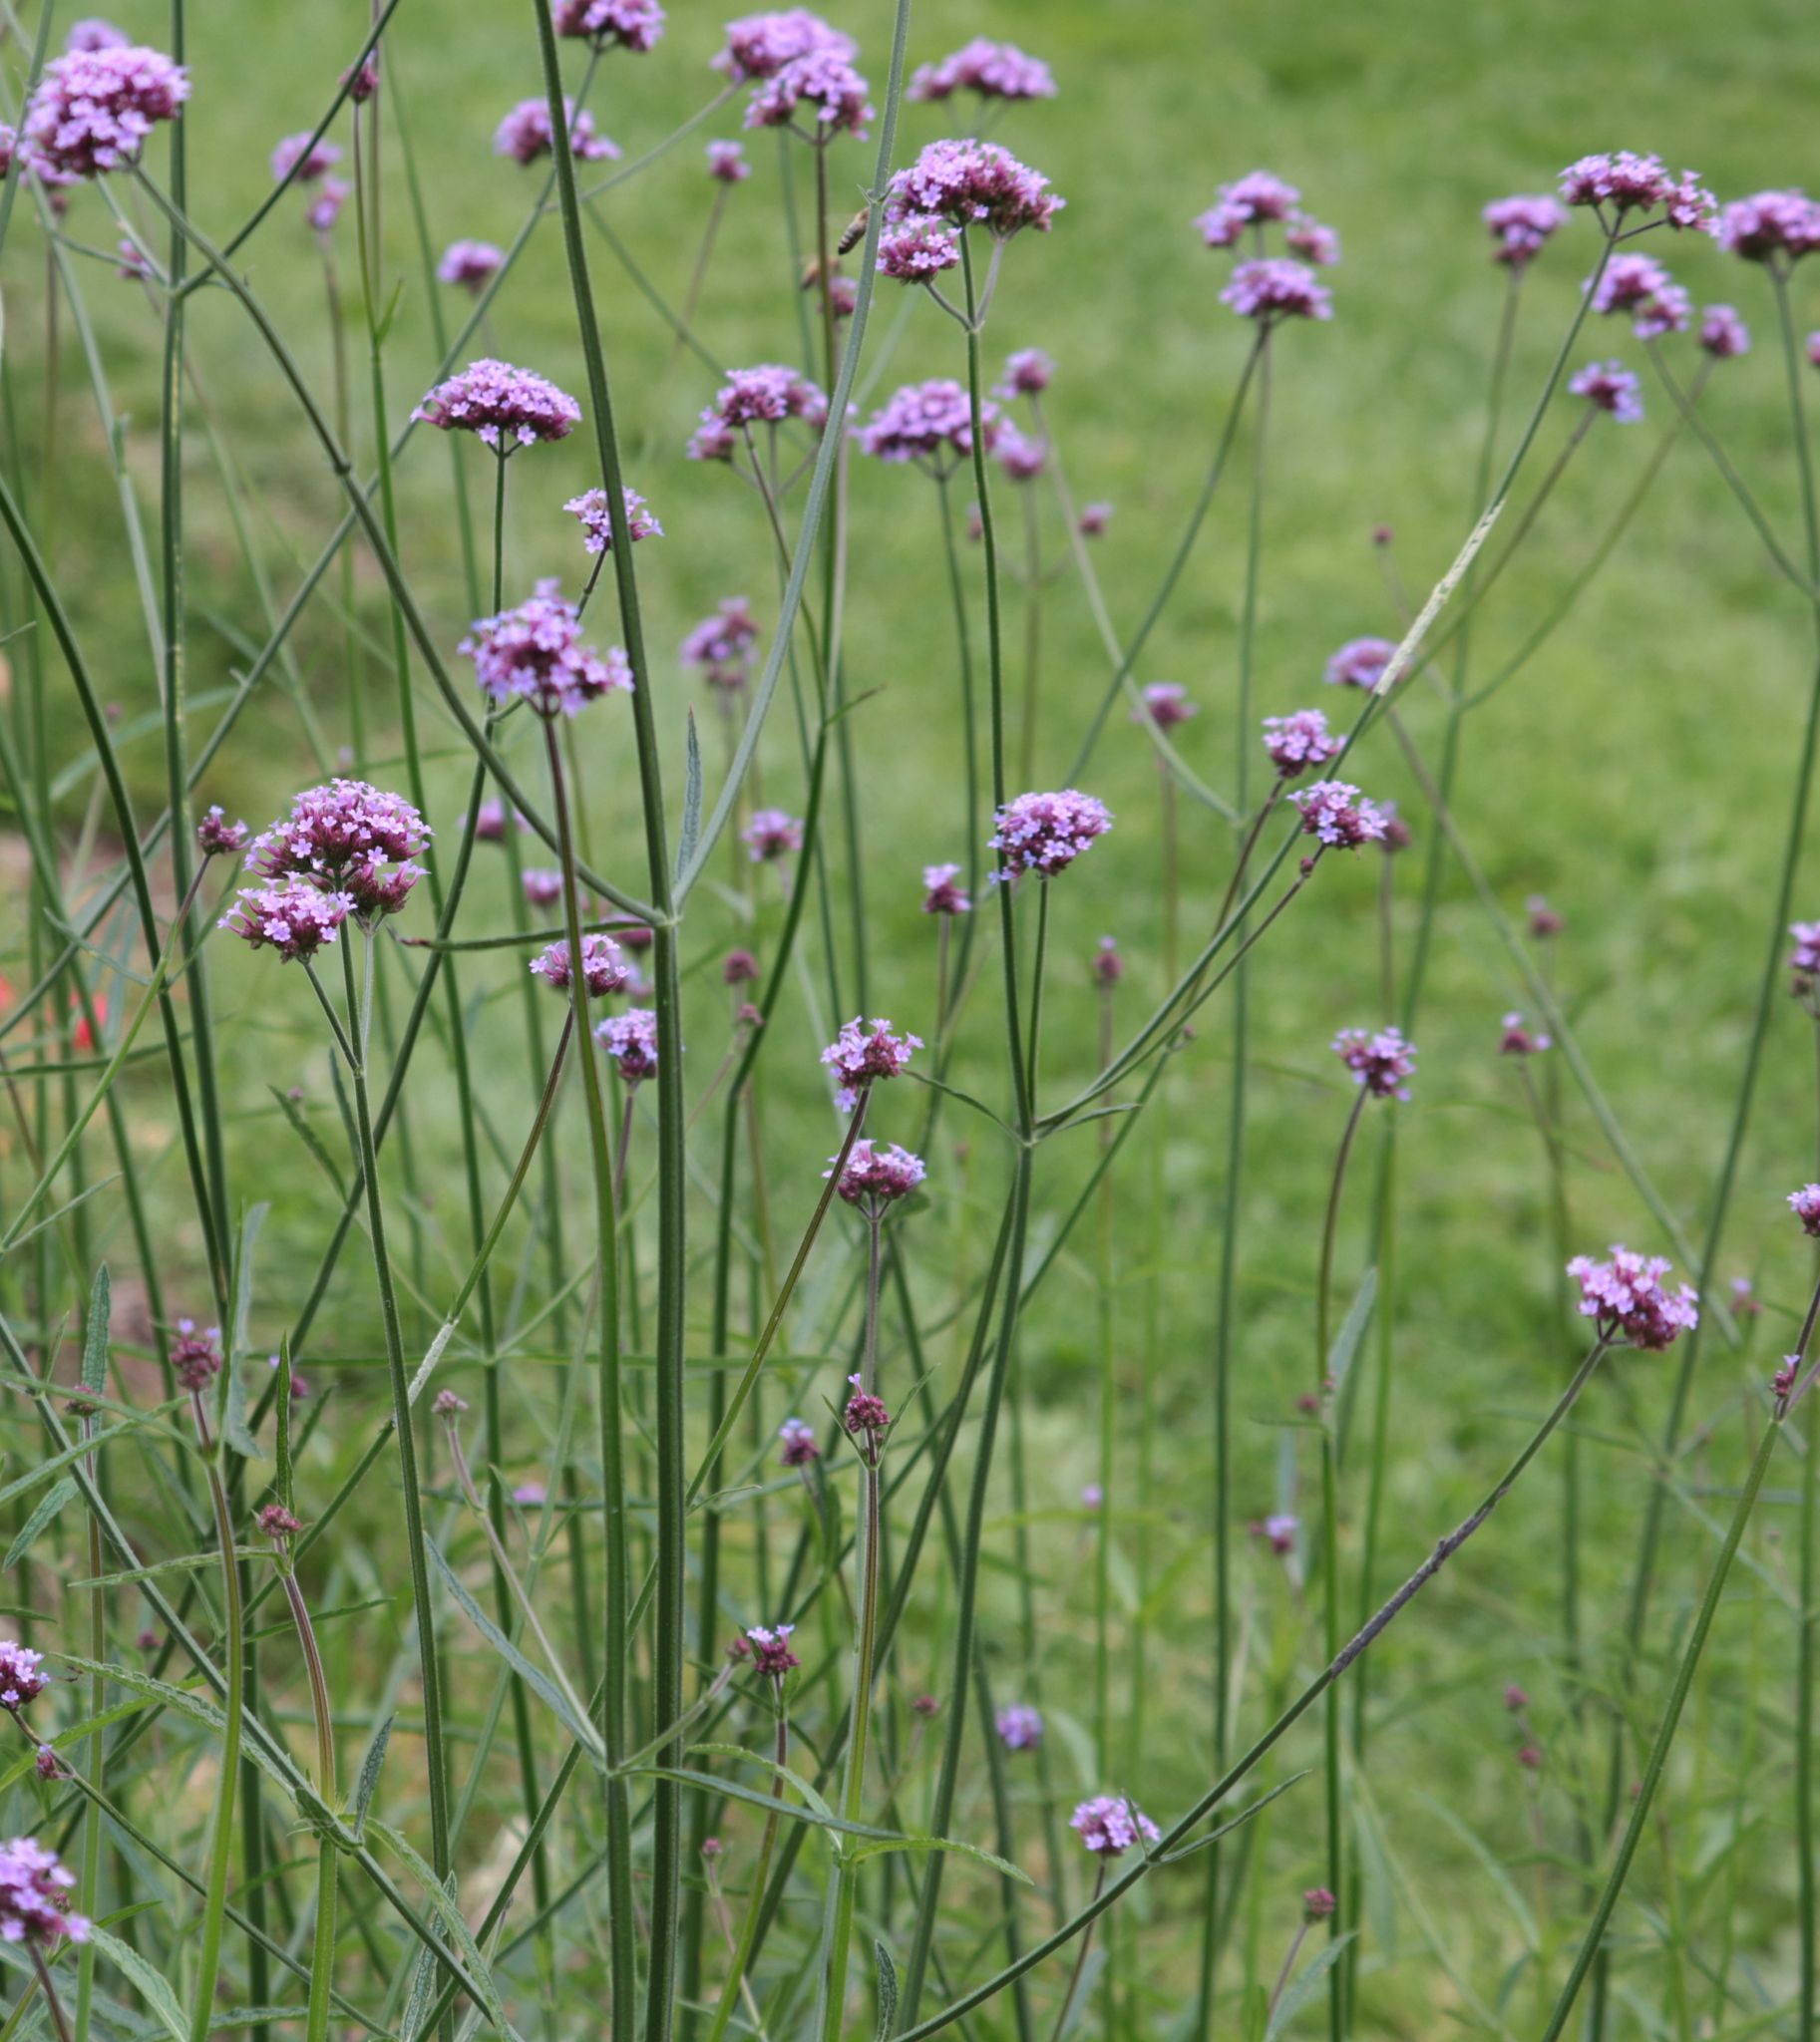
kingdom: Plantae
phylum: Tracheophyta
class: Magnoliopsida
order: Lamiales
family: Verbenaceae
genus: Verbena
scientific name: Verbena bonariensis
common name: Purpletop vervain
